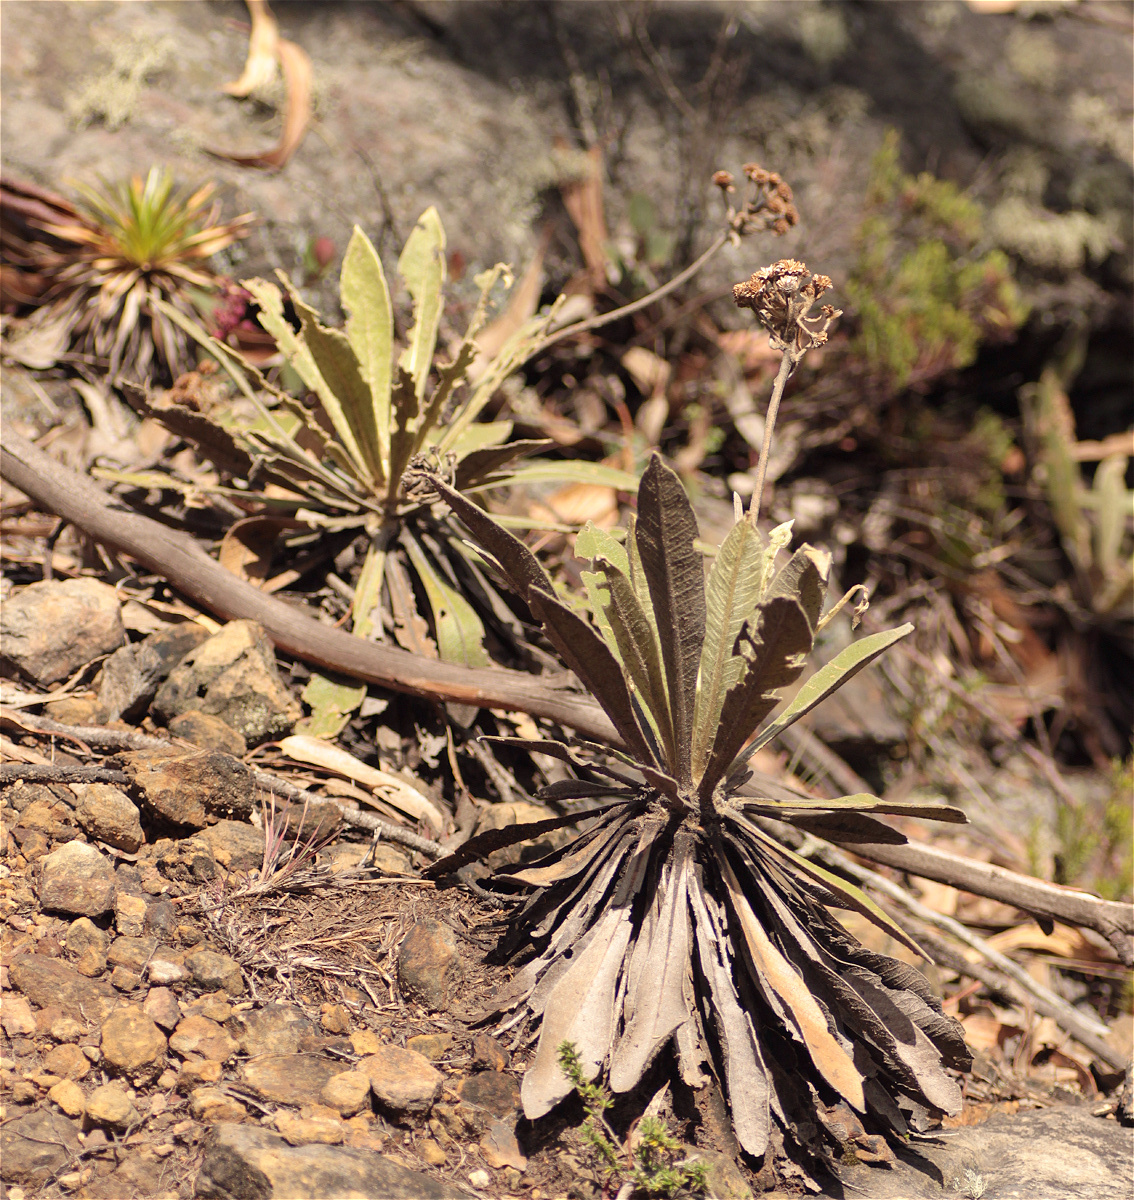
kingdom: Plantae
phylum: Tracheophyta
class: Magnoliopsida
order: Asterales
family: Asteraceae
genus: Espeletia
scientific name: Espeletia corymbosa
